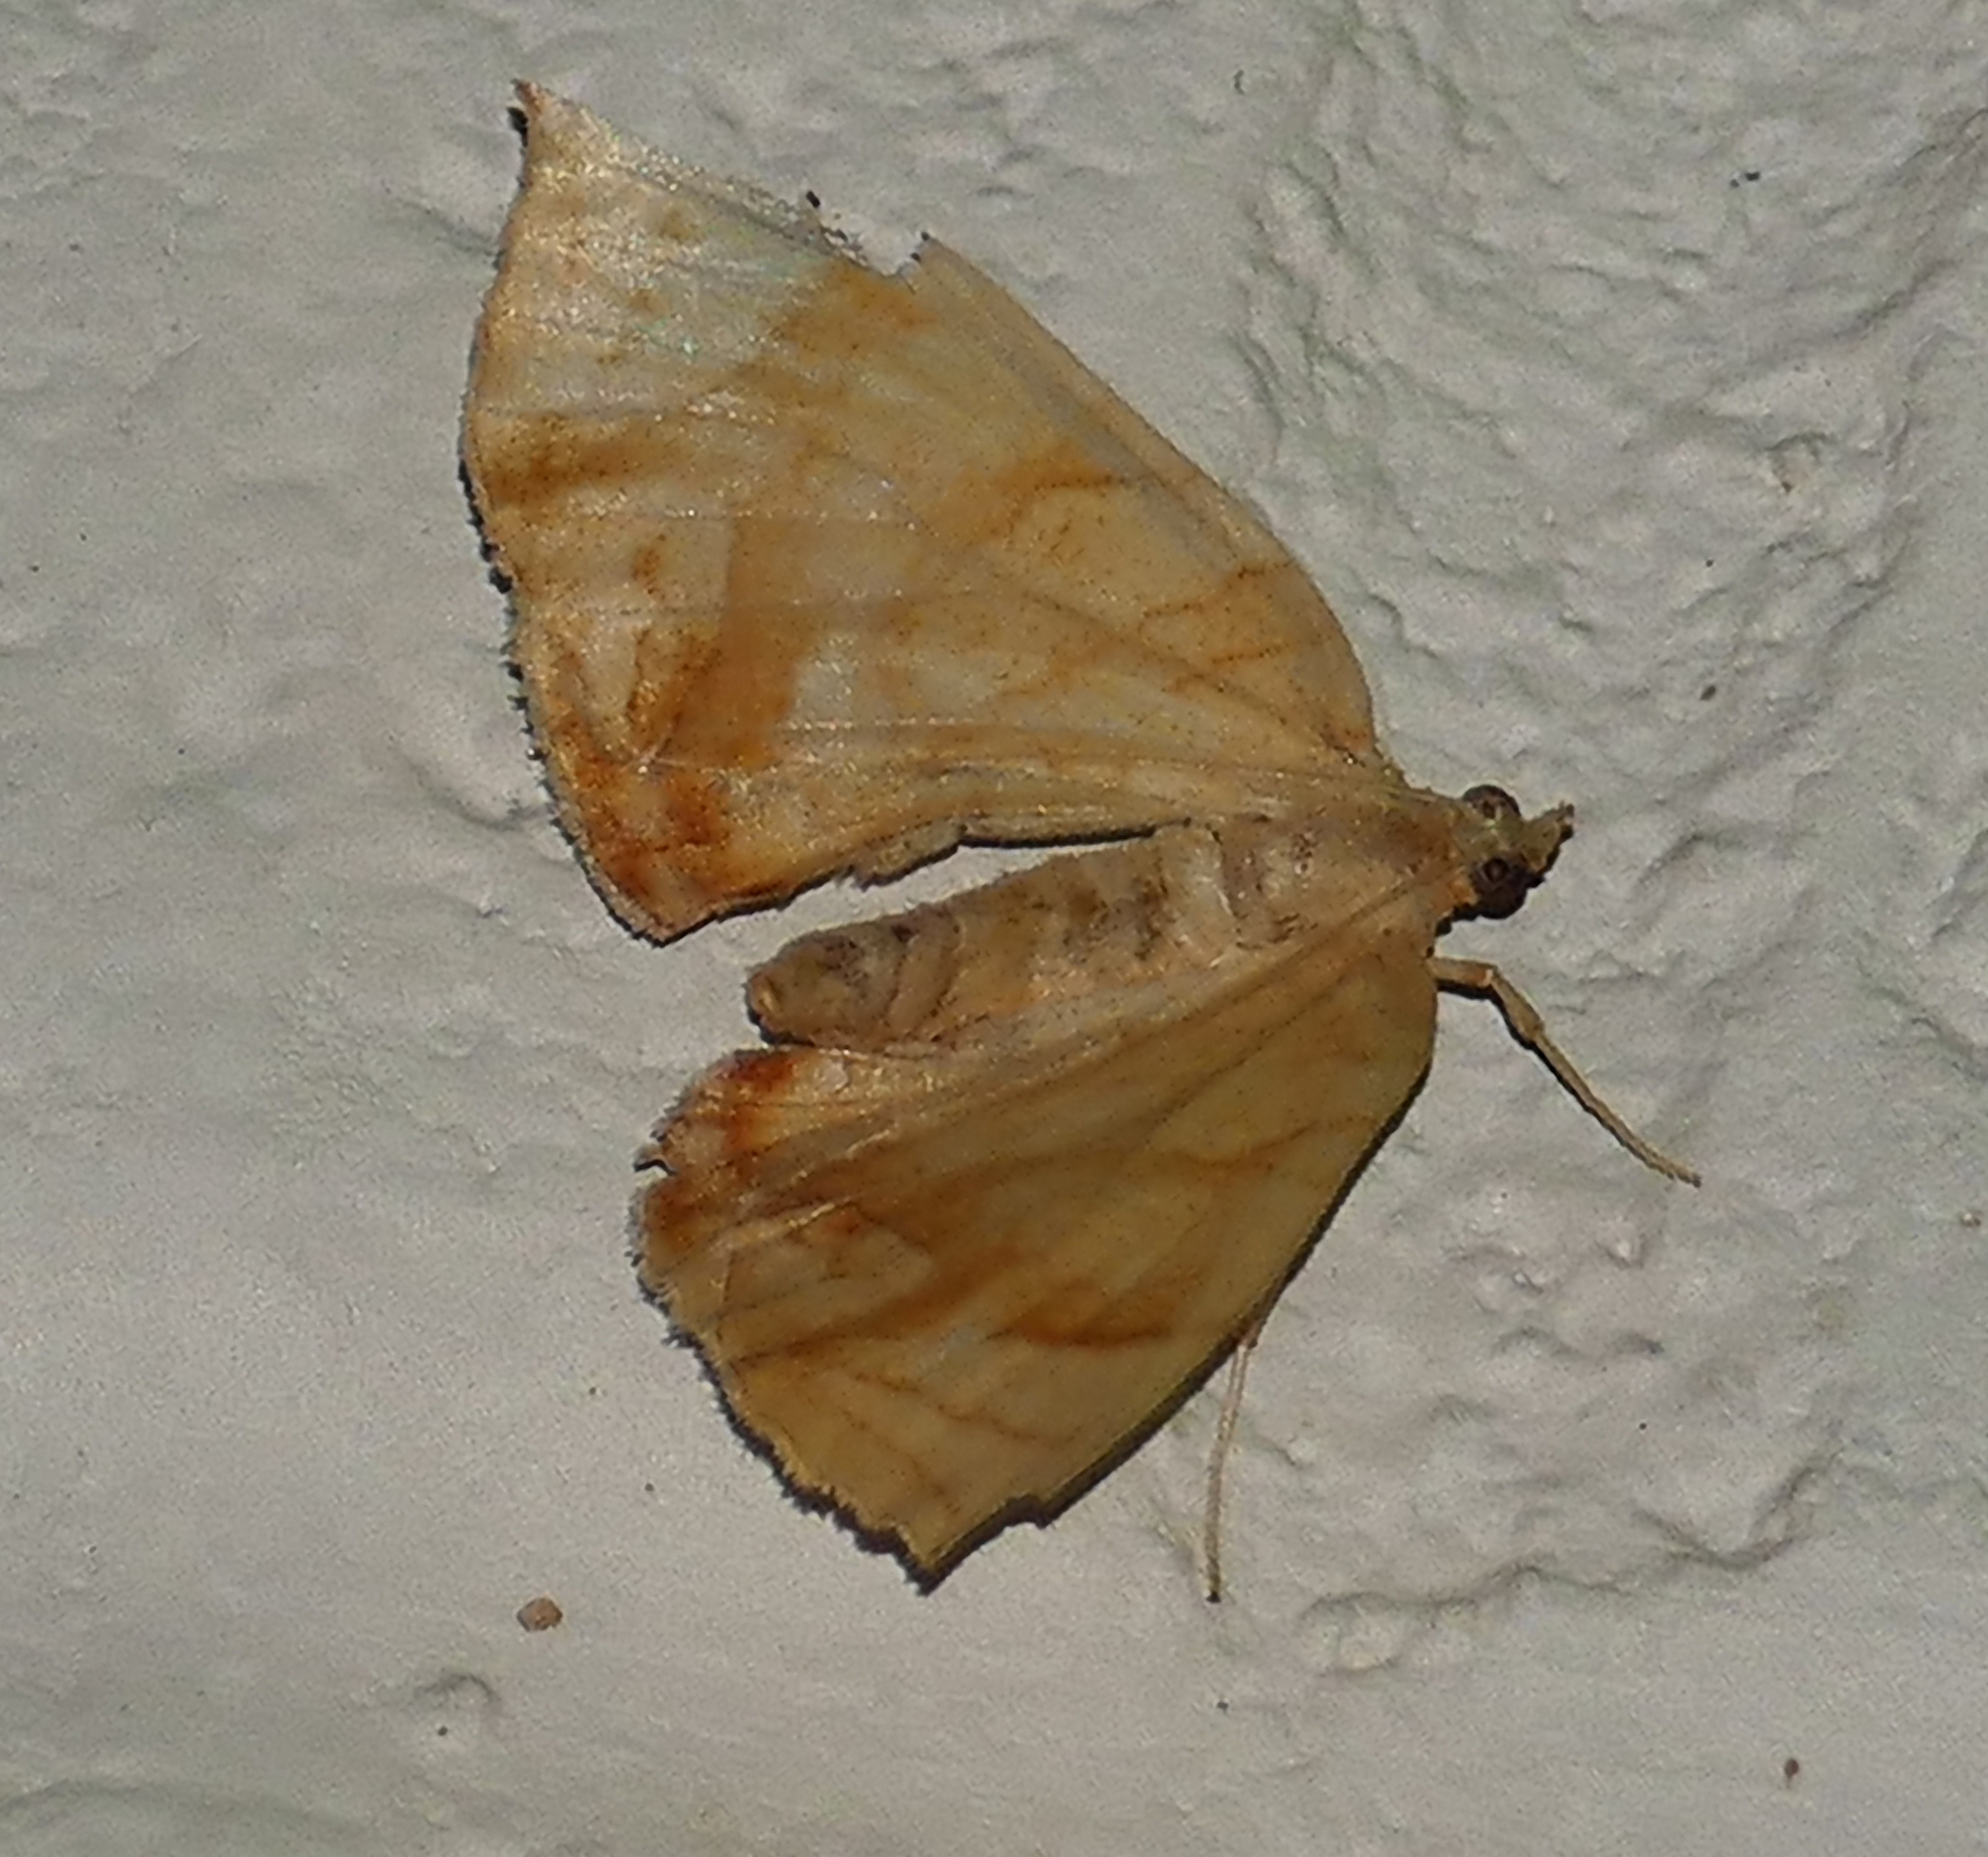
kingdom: Animalia
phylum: Arthropoda
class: Insecta
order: Lepidoptera
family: Geometridae
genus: Eulithis
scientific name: Eulithis
